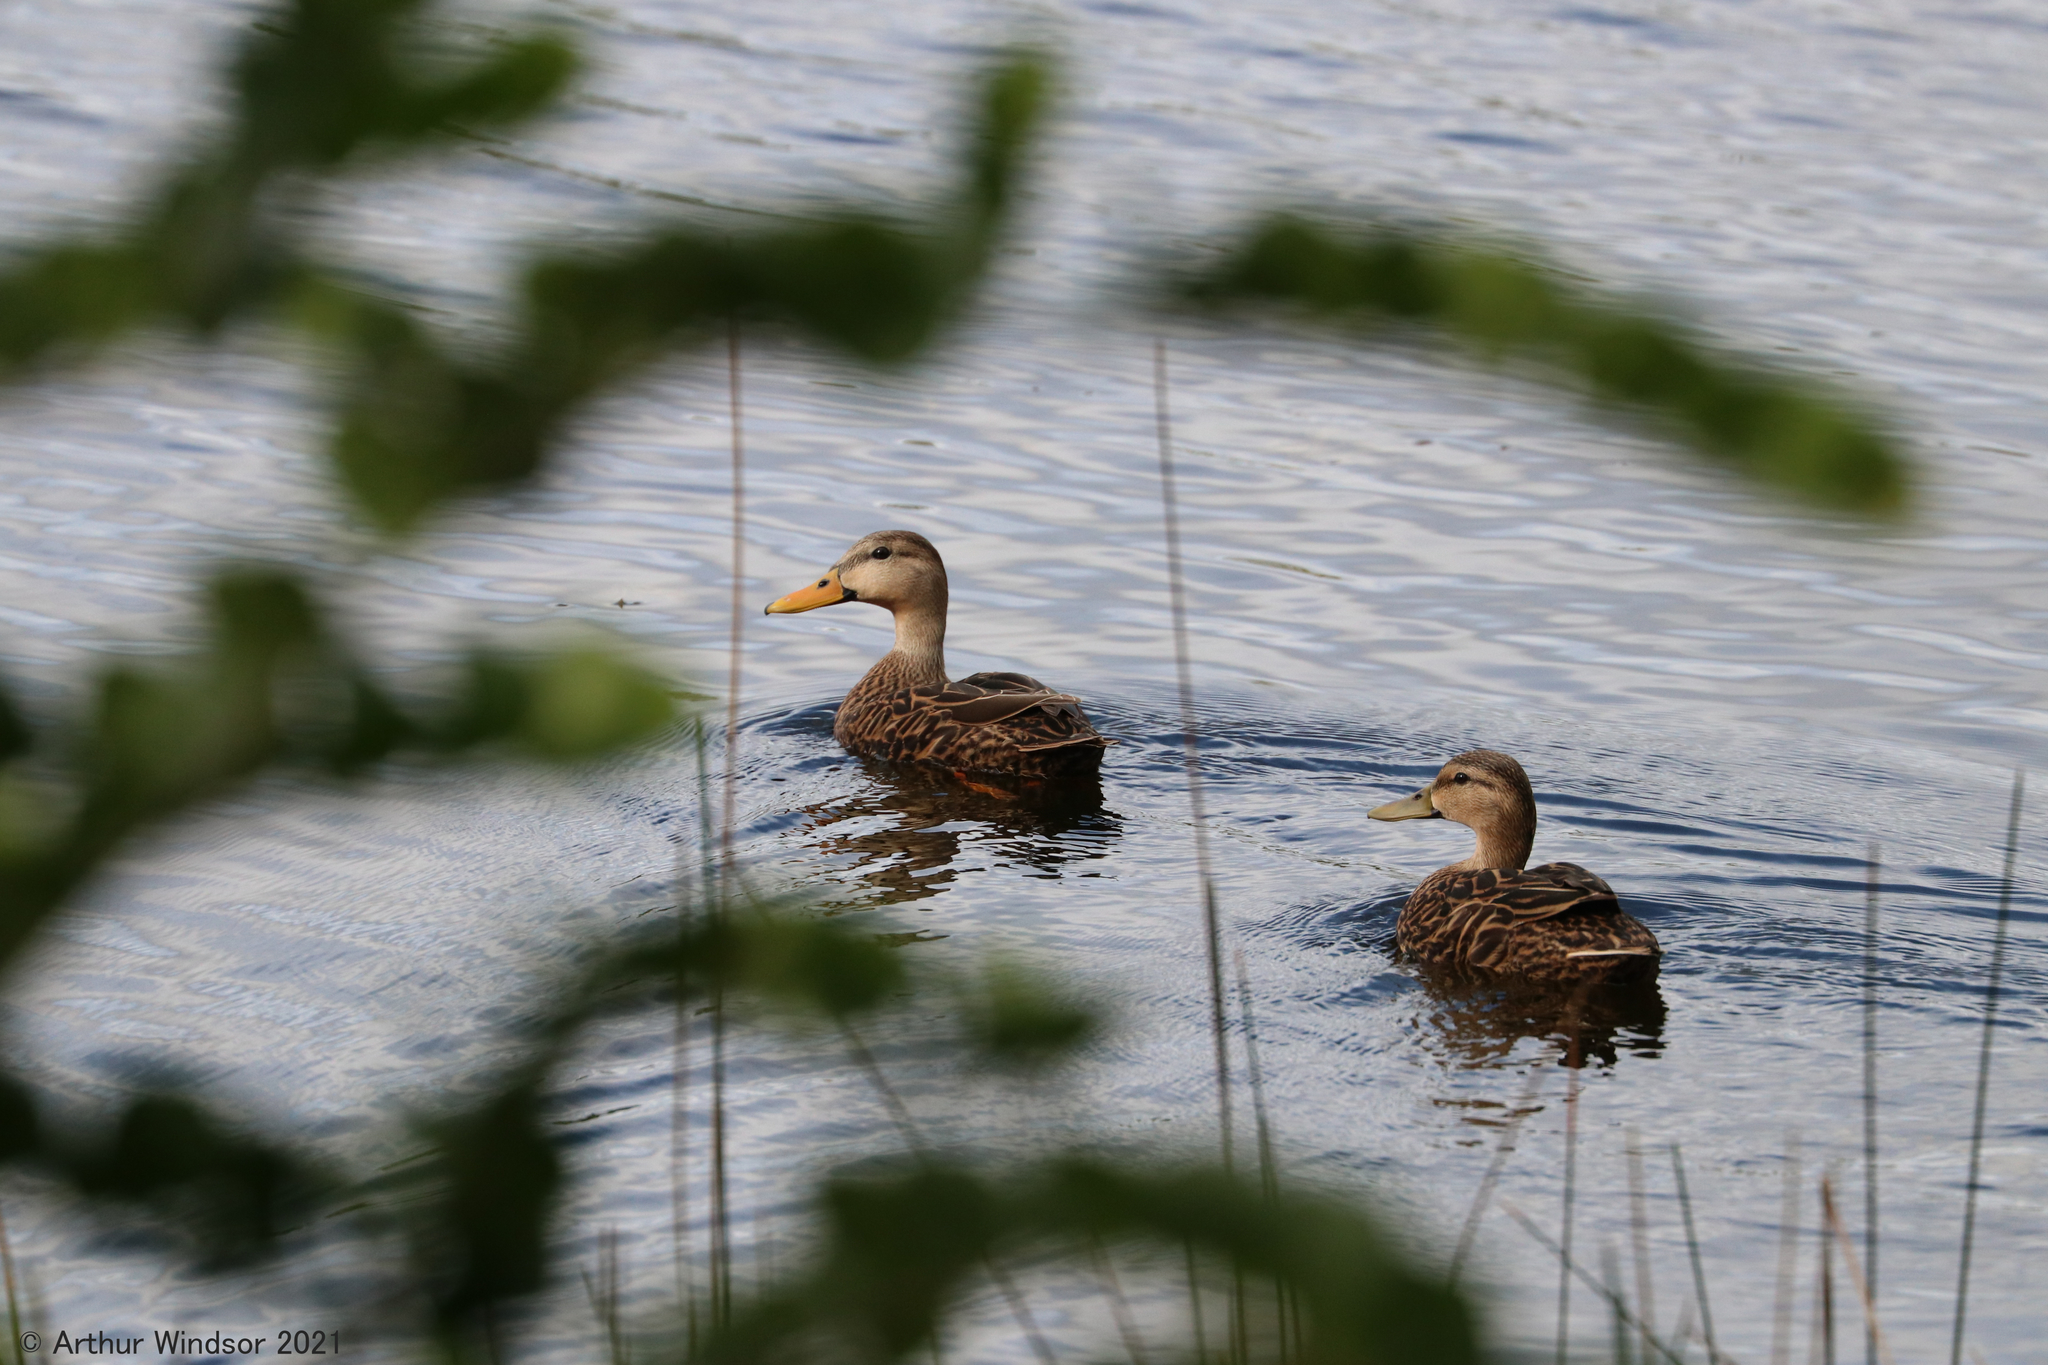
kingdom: Animalia
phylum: Chordata
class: Aves
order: Anseriformes
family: Anatidae
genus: Anas
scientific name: Anas fulvigula
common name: Mottled duck
